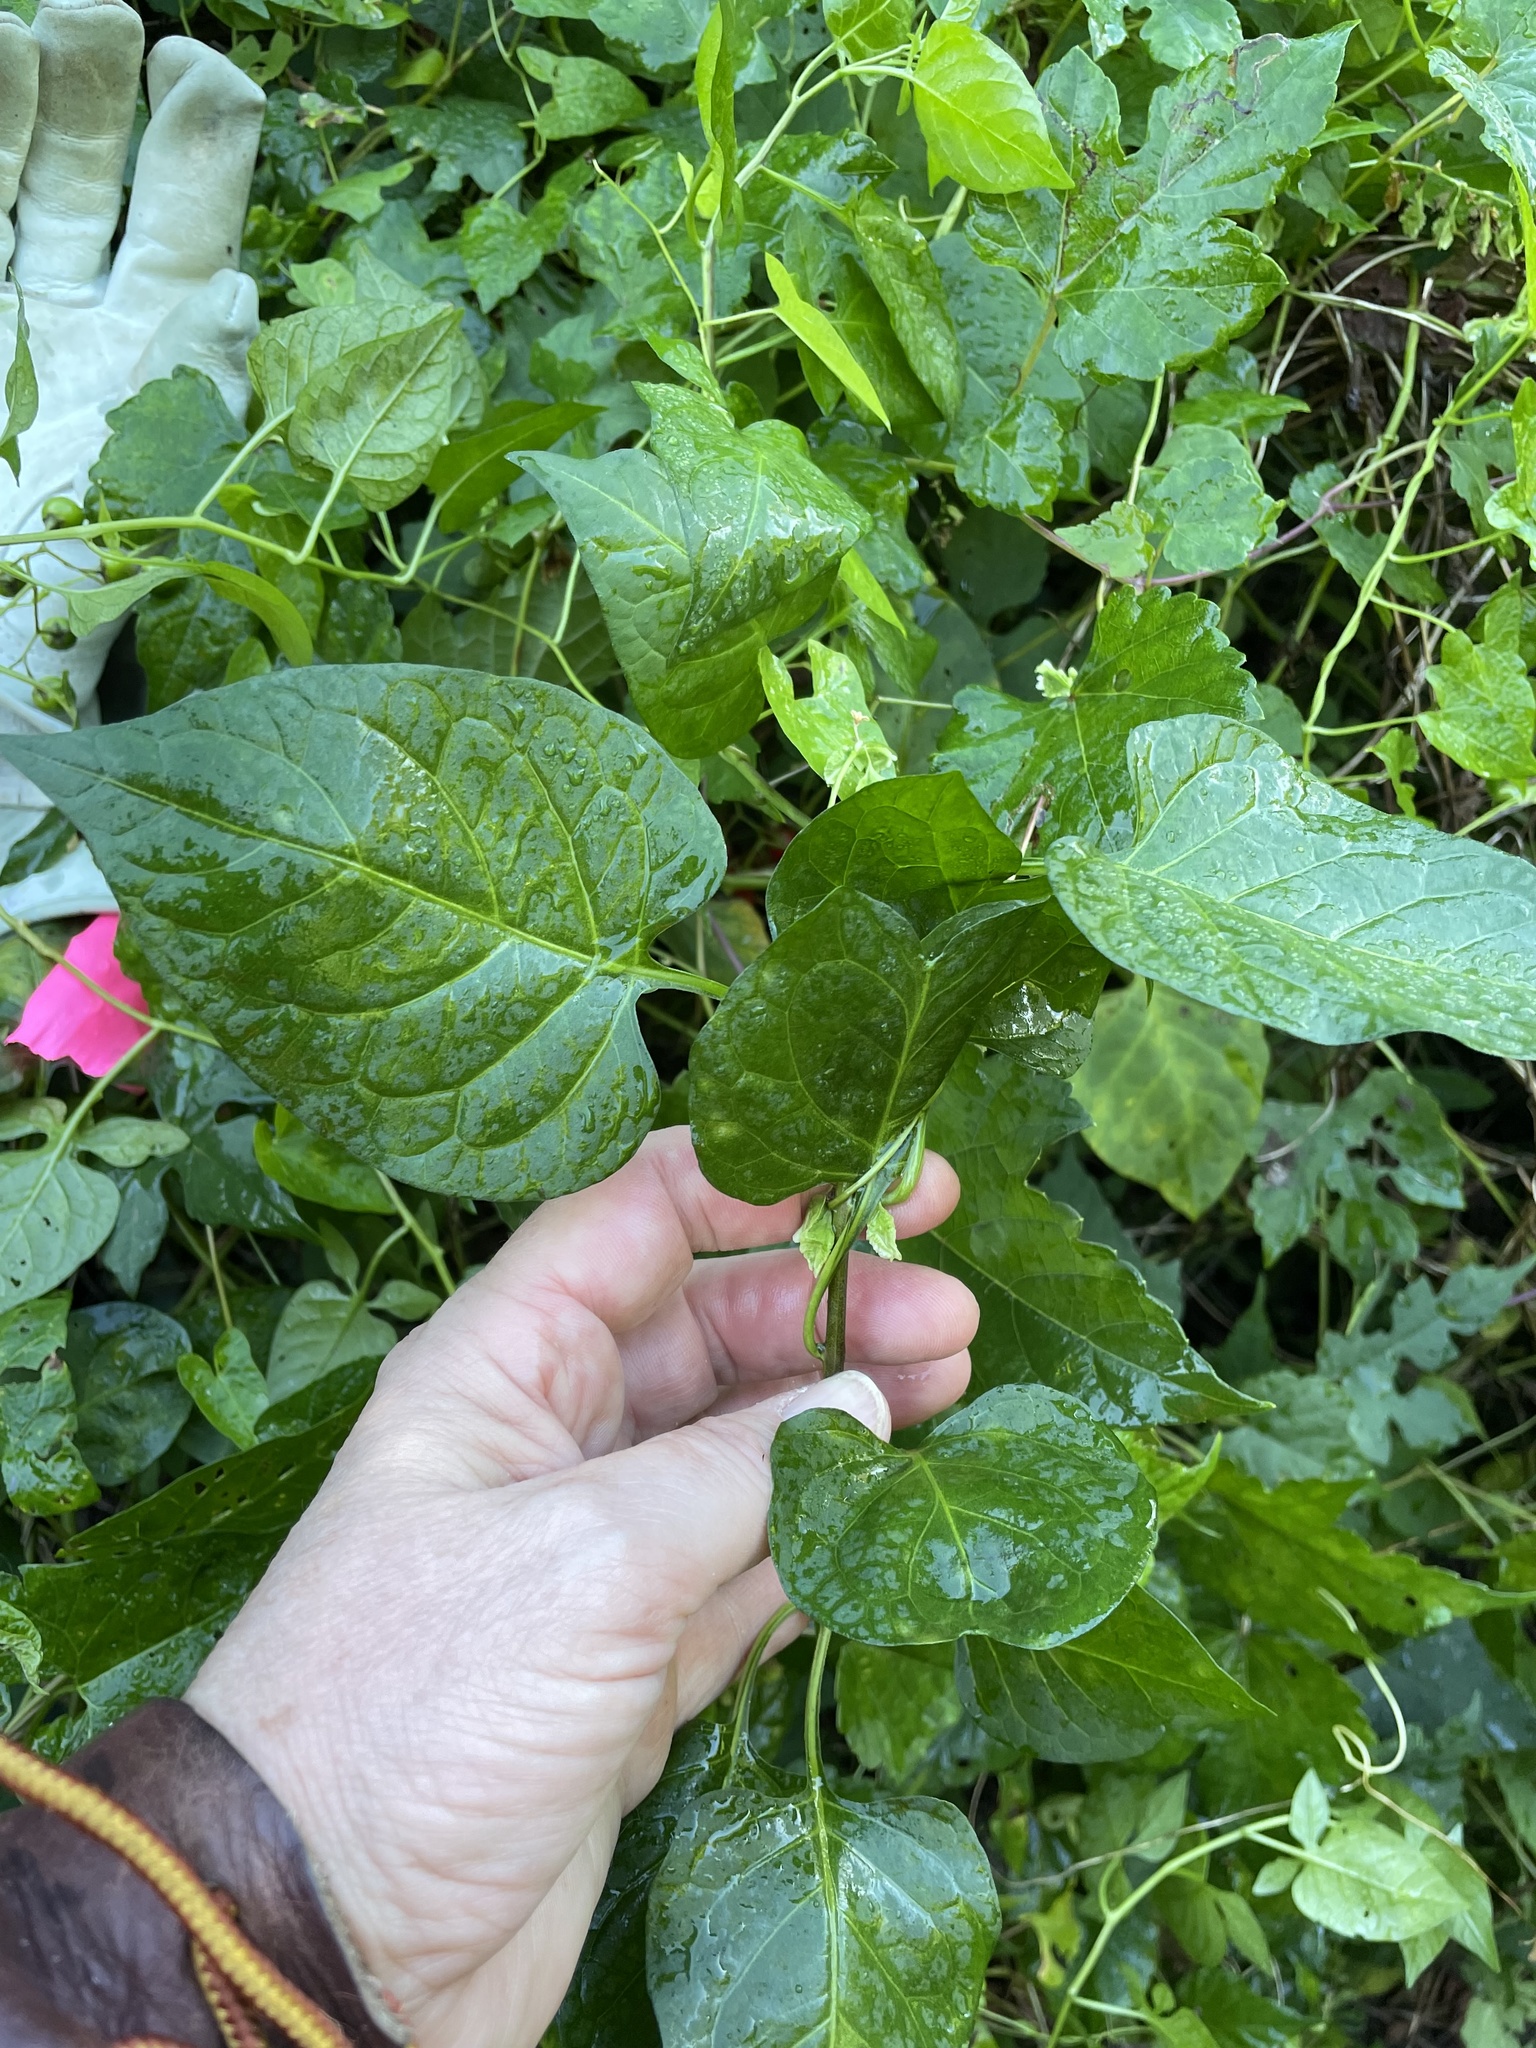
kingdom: Plantae
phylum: Tracheophyta
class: Magnoliopsida
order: Solanales
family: Solanaceae
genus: Solanum
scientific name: Solanum dulcamara
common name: Climbing nightshade
